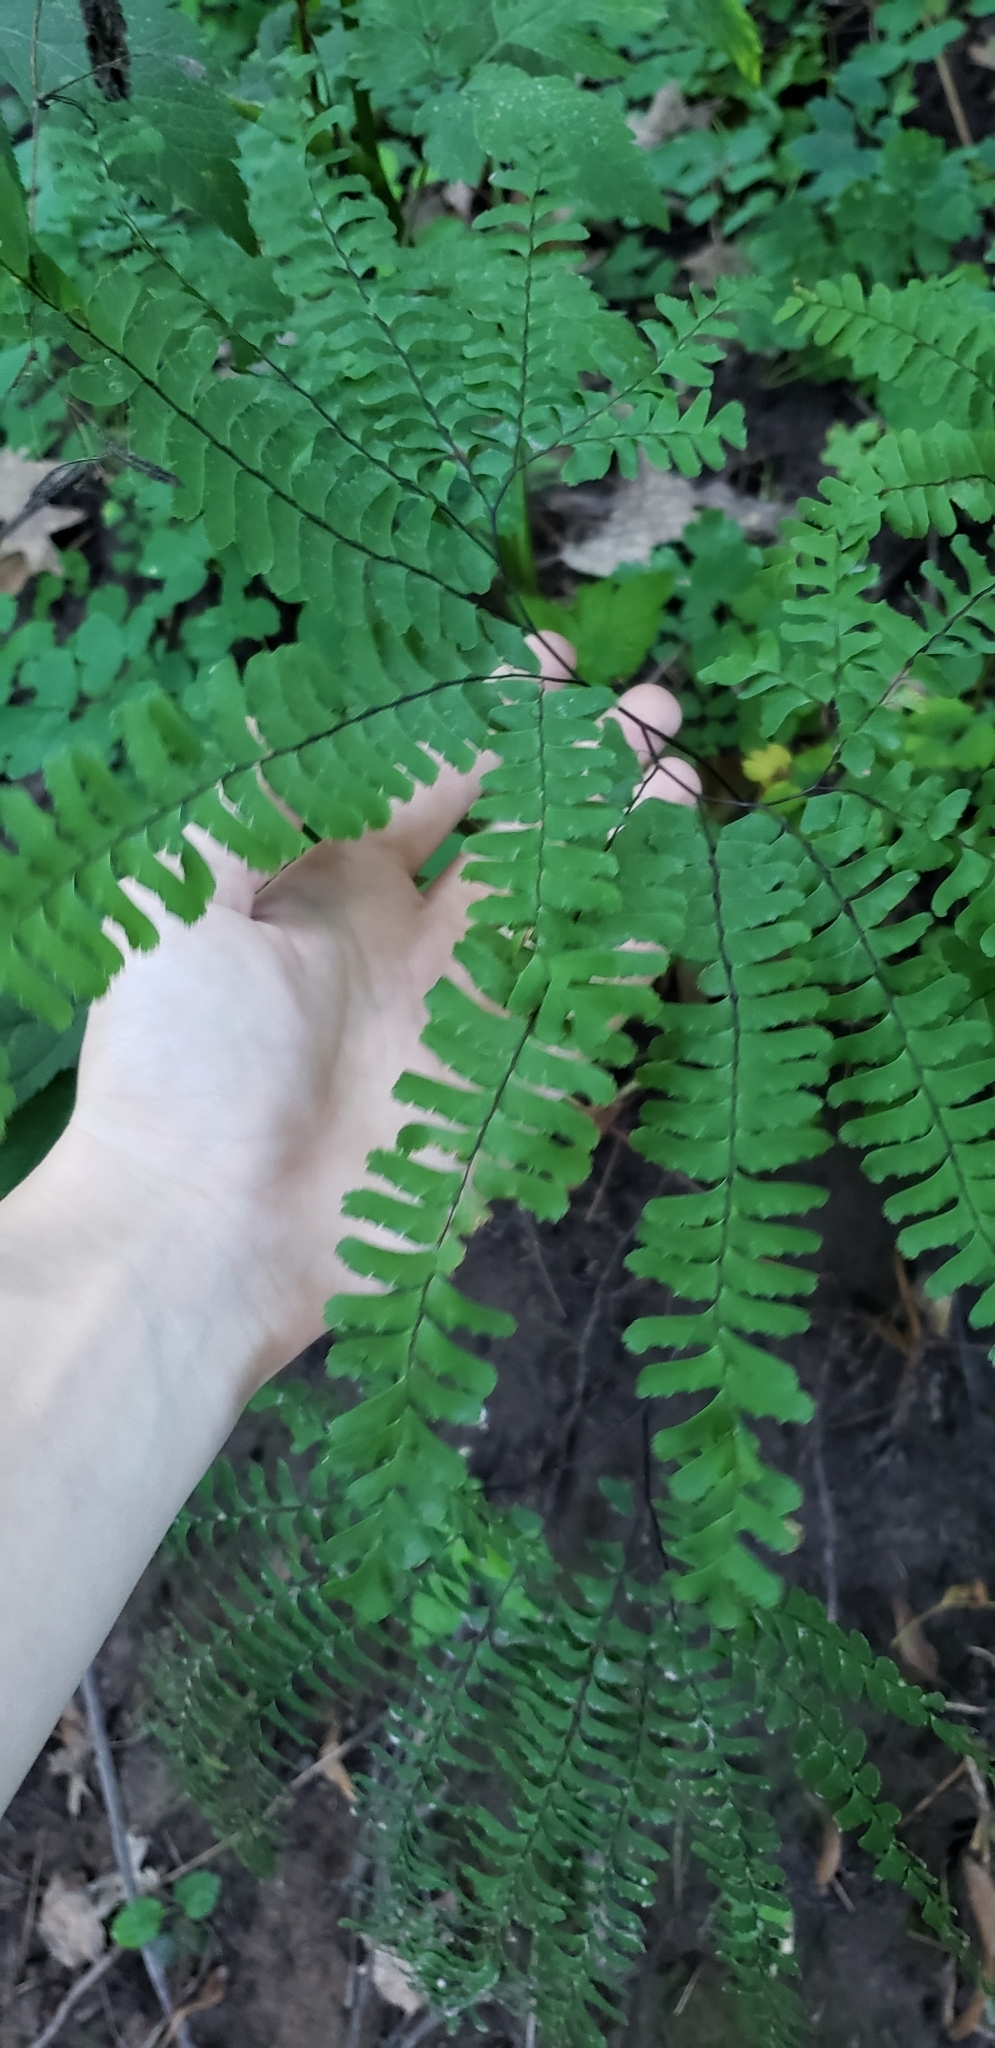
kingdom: Plantae
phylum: Tracheophyta
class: Polypodiopsida
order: Polypodiales
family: Pteridaceae
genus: Adiantum
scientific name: Adiantum pedatum
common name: Five-finger fern
